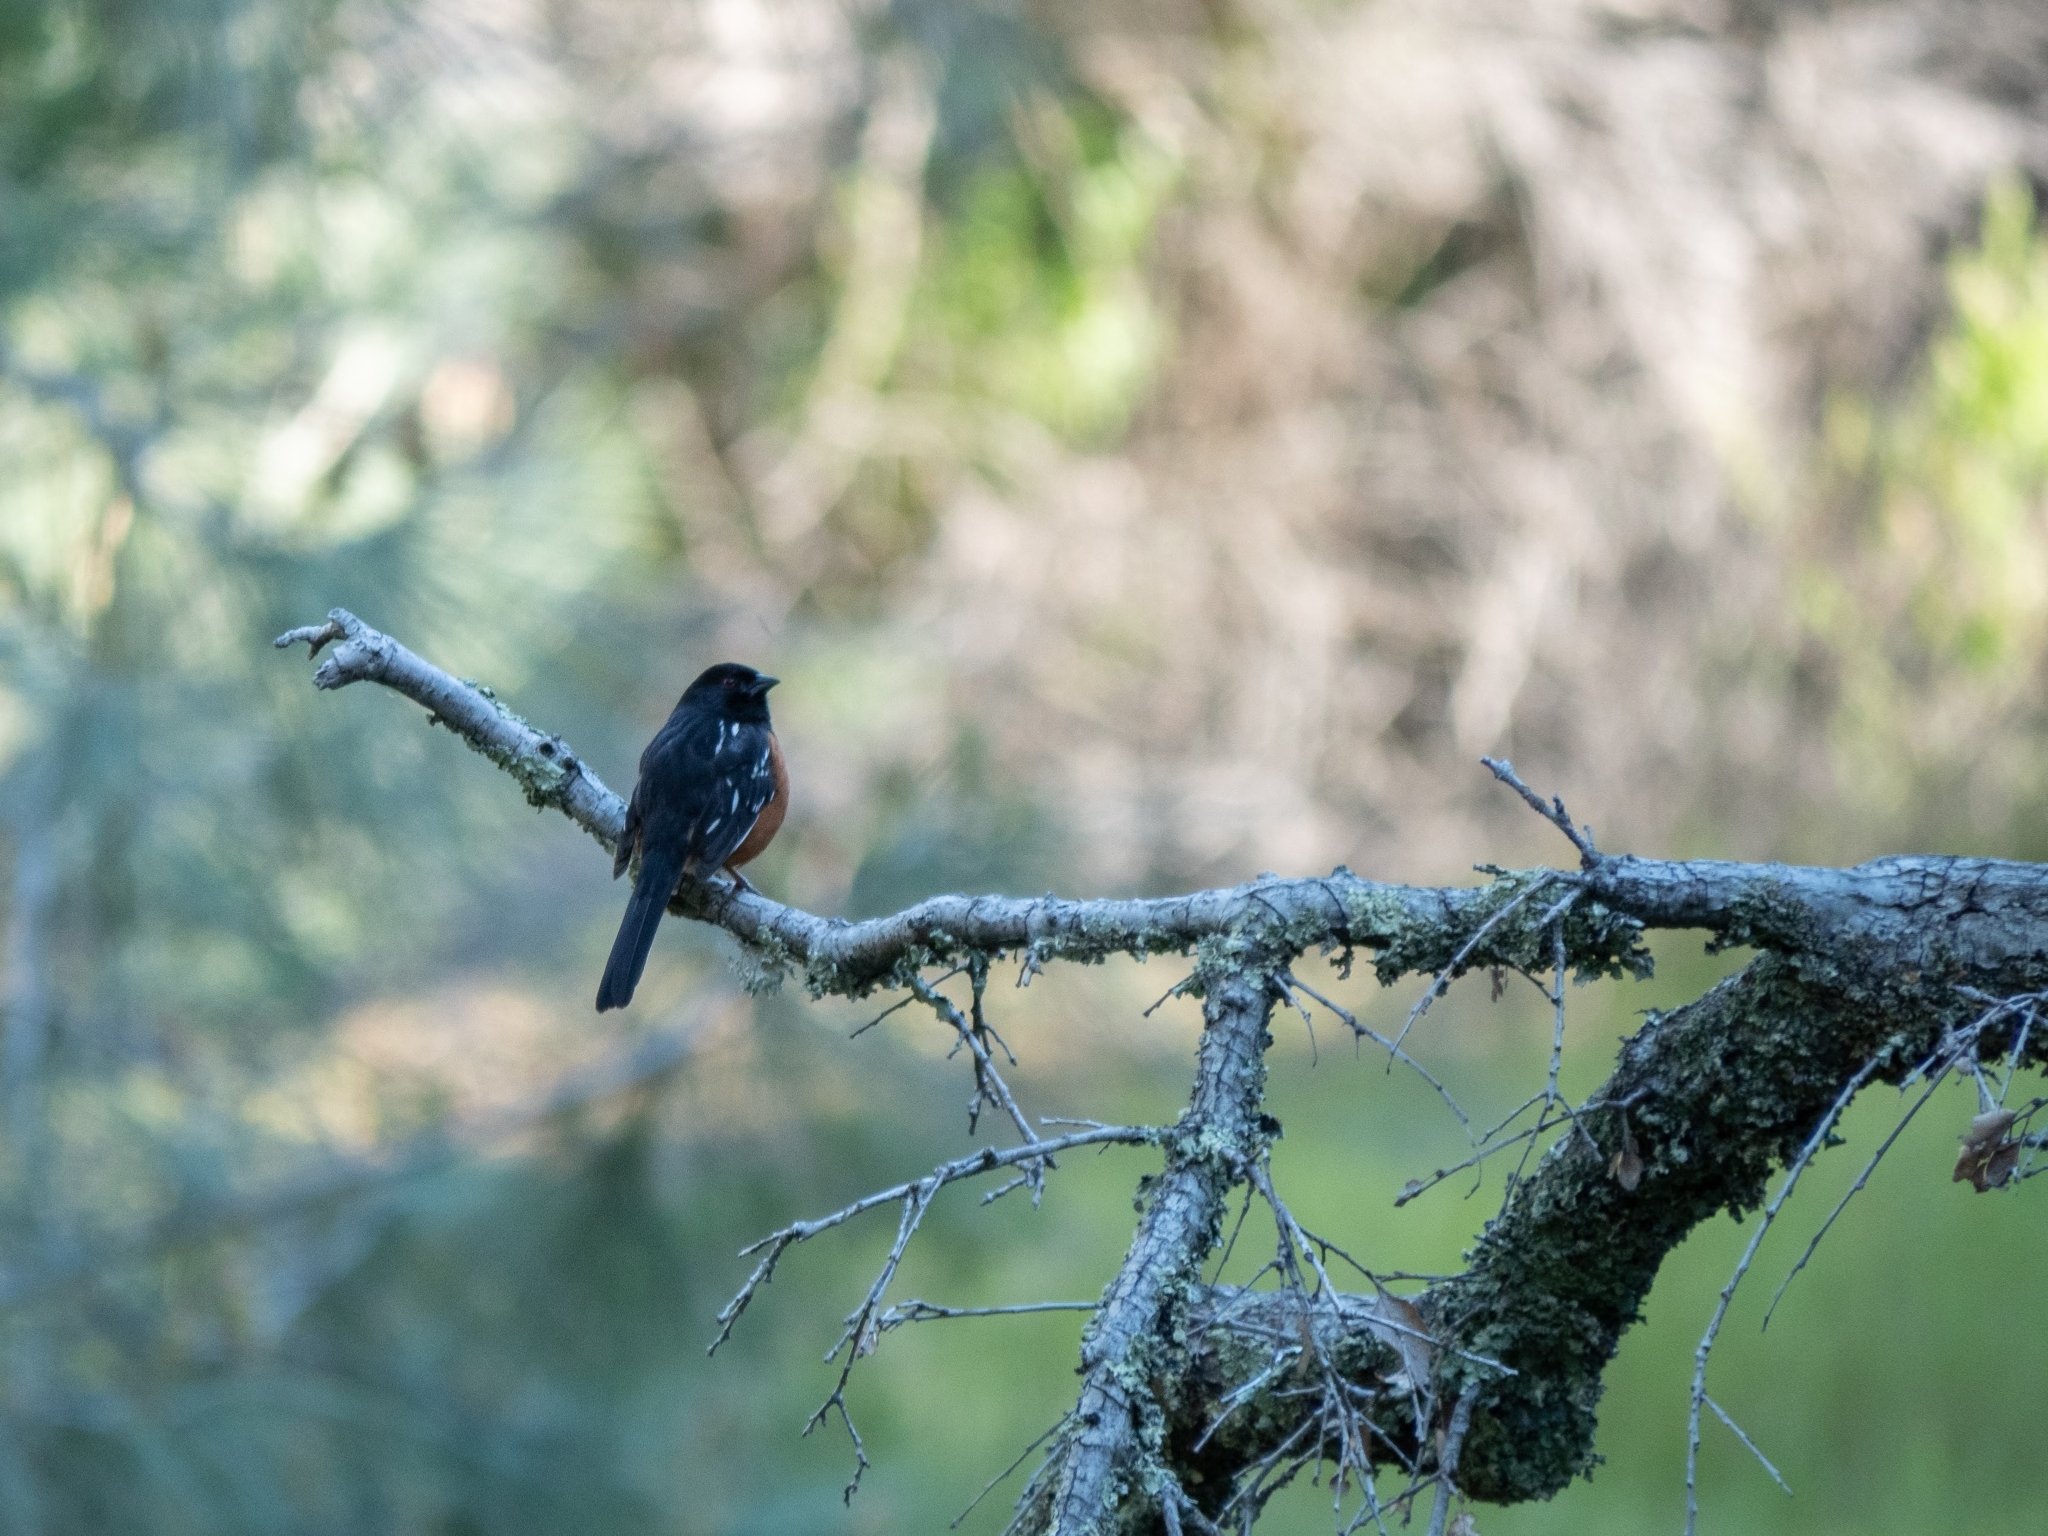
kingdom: Animalia
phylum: Chordata
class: Aves
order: Passeriformes
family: Passerellidae
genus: Pipilo
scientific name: Pipilo maculatus
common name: Spotted towhee
